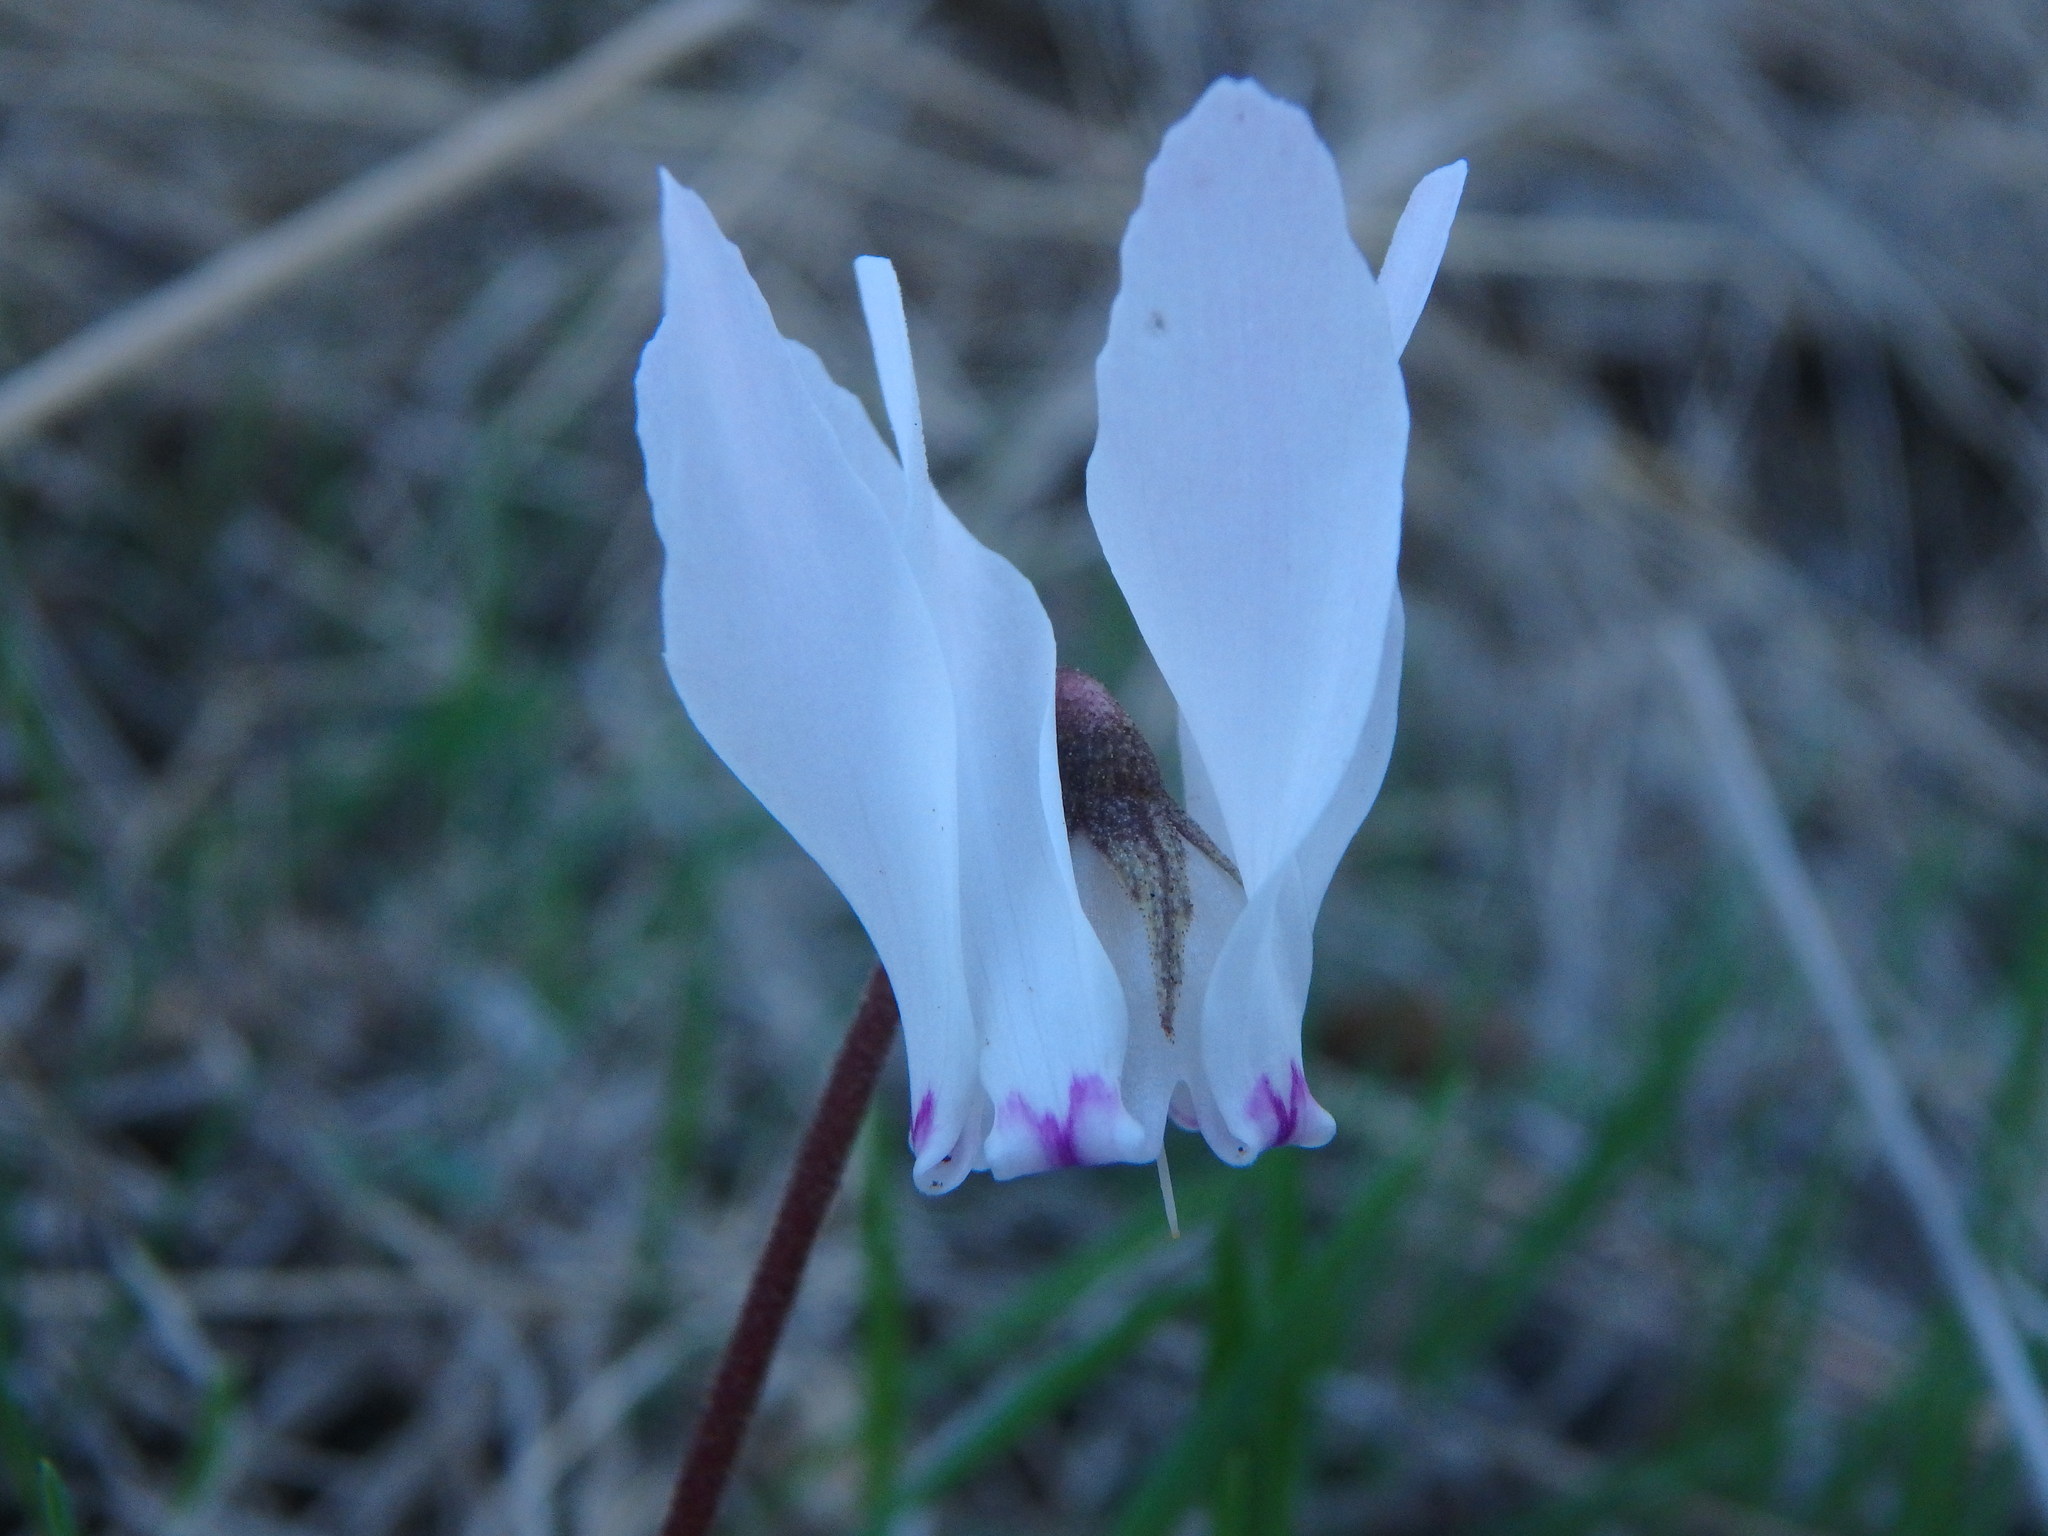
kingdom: Plantae
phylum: Tracheophyta
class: Magnoliopsida
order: Ericales
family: Primulaceae
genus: Cyclamen
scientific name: Cyclamen cyprium
